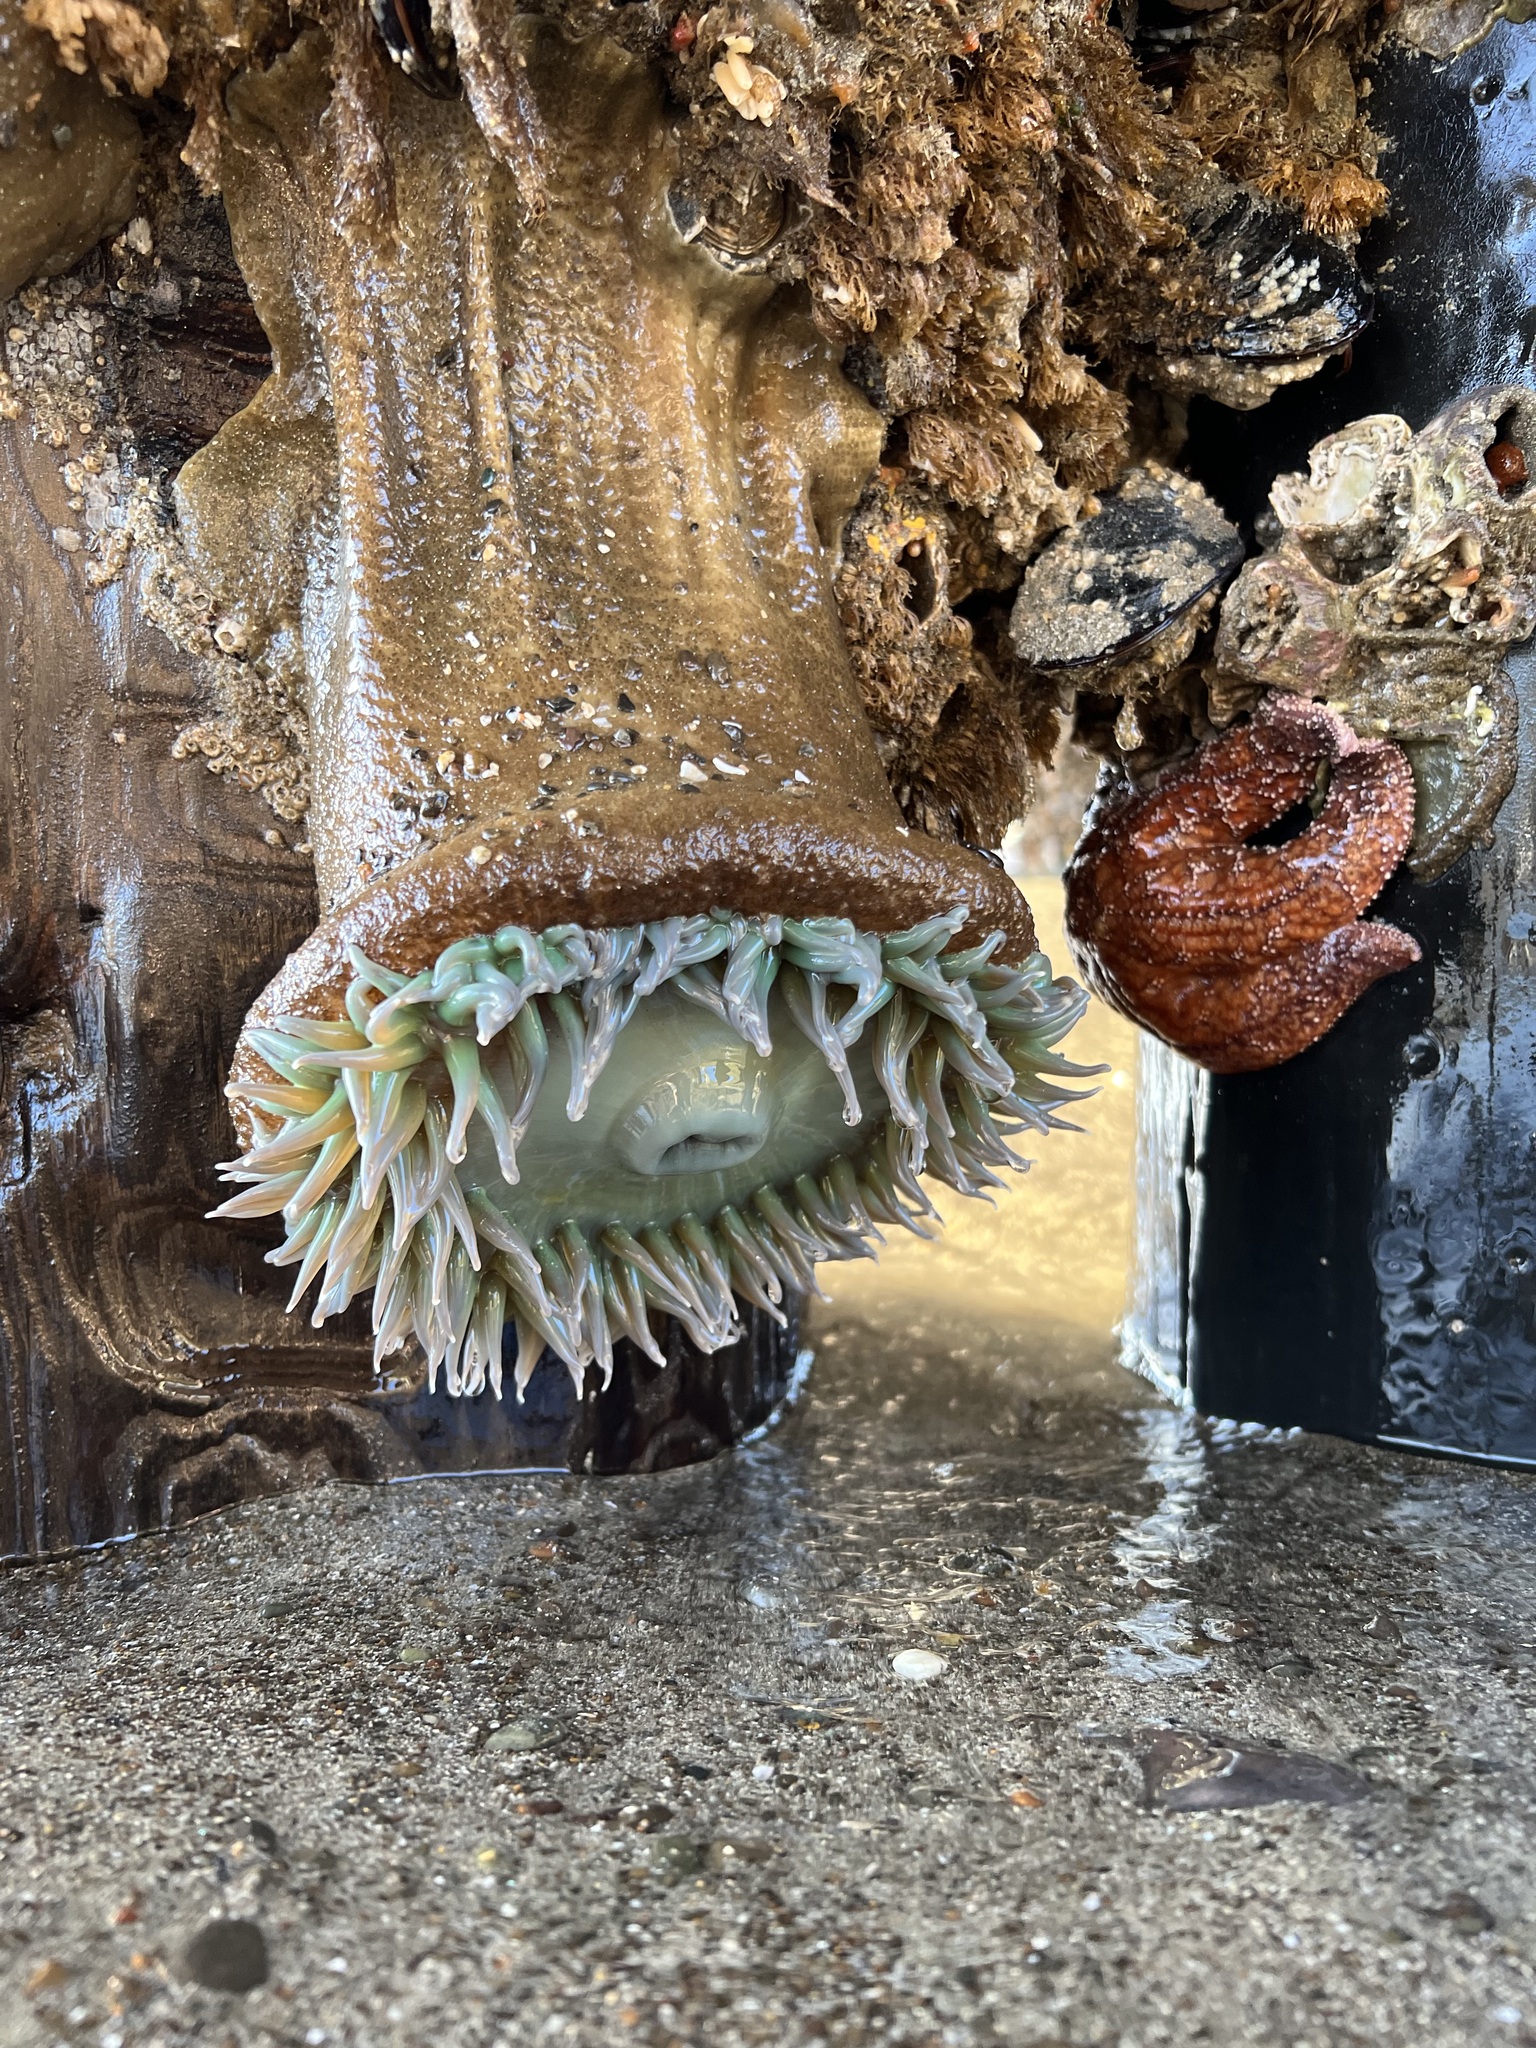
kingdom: Animalia
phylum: Echinodermata
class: Asteroidea
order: Forcipulatida
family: Asteriidae
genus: Pisaster
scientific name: Pisaster ochraceus
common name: Ochre stars
